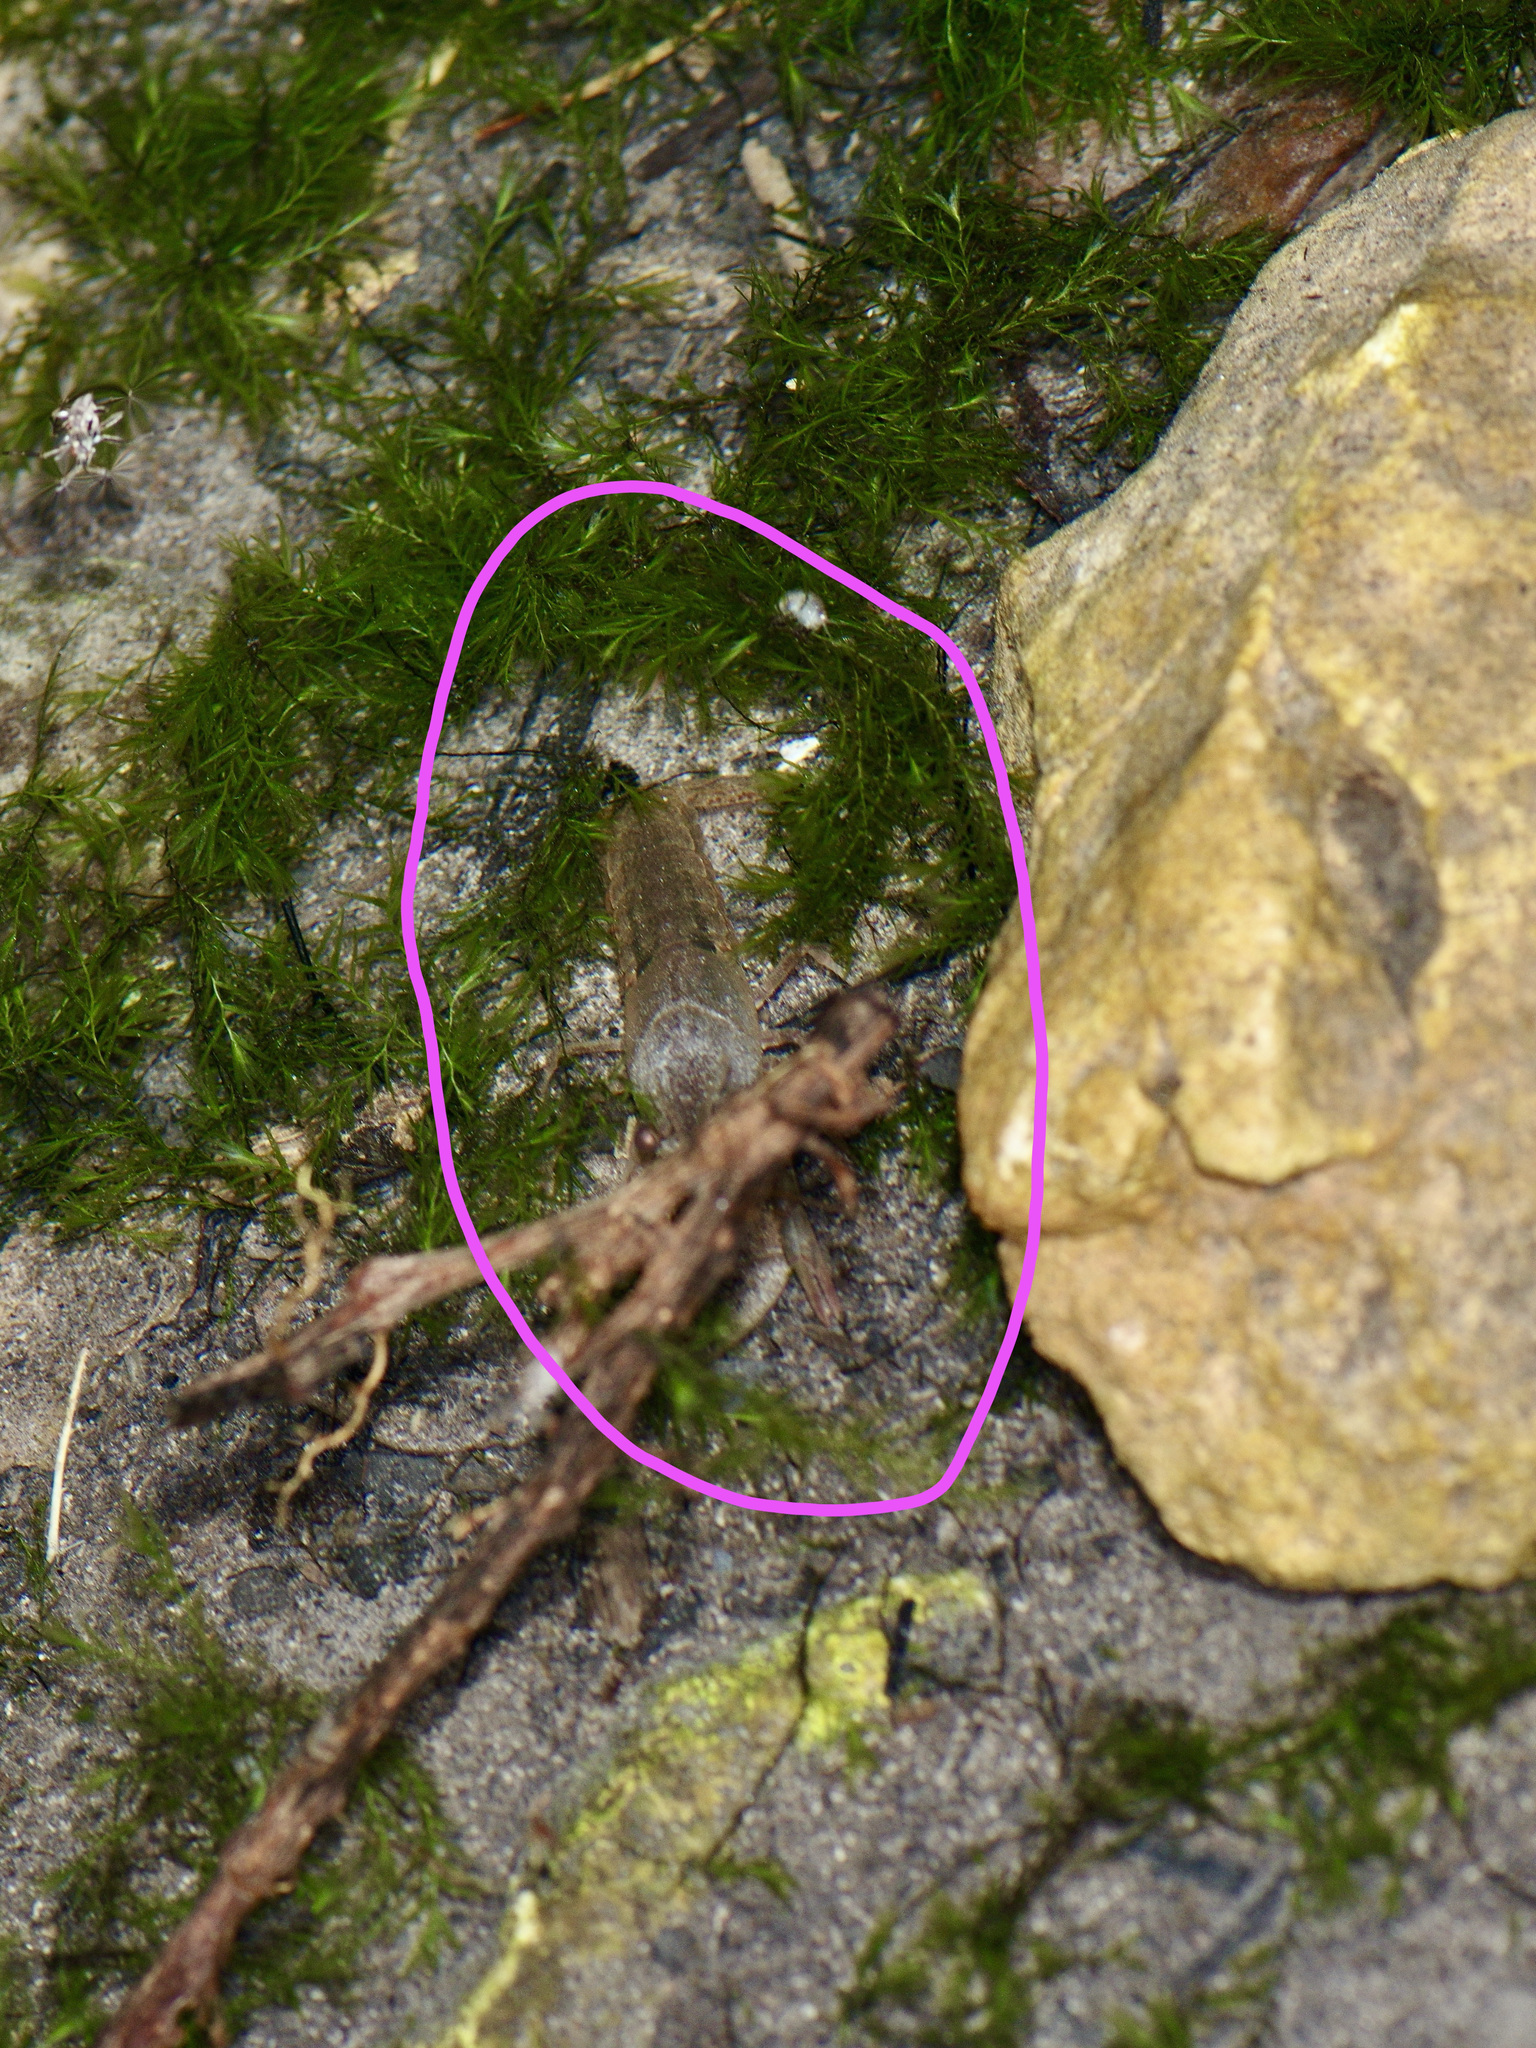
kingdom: Animalia
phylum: Arthropoda
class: Malacostraca
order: Decapoda
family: Cambaridae
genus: Procambarus
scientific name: Procambarus clarkii
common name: Red swamp crayfish
